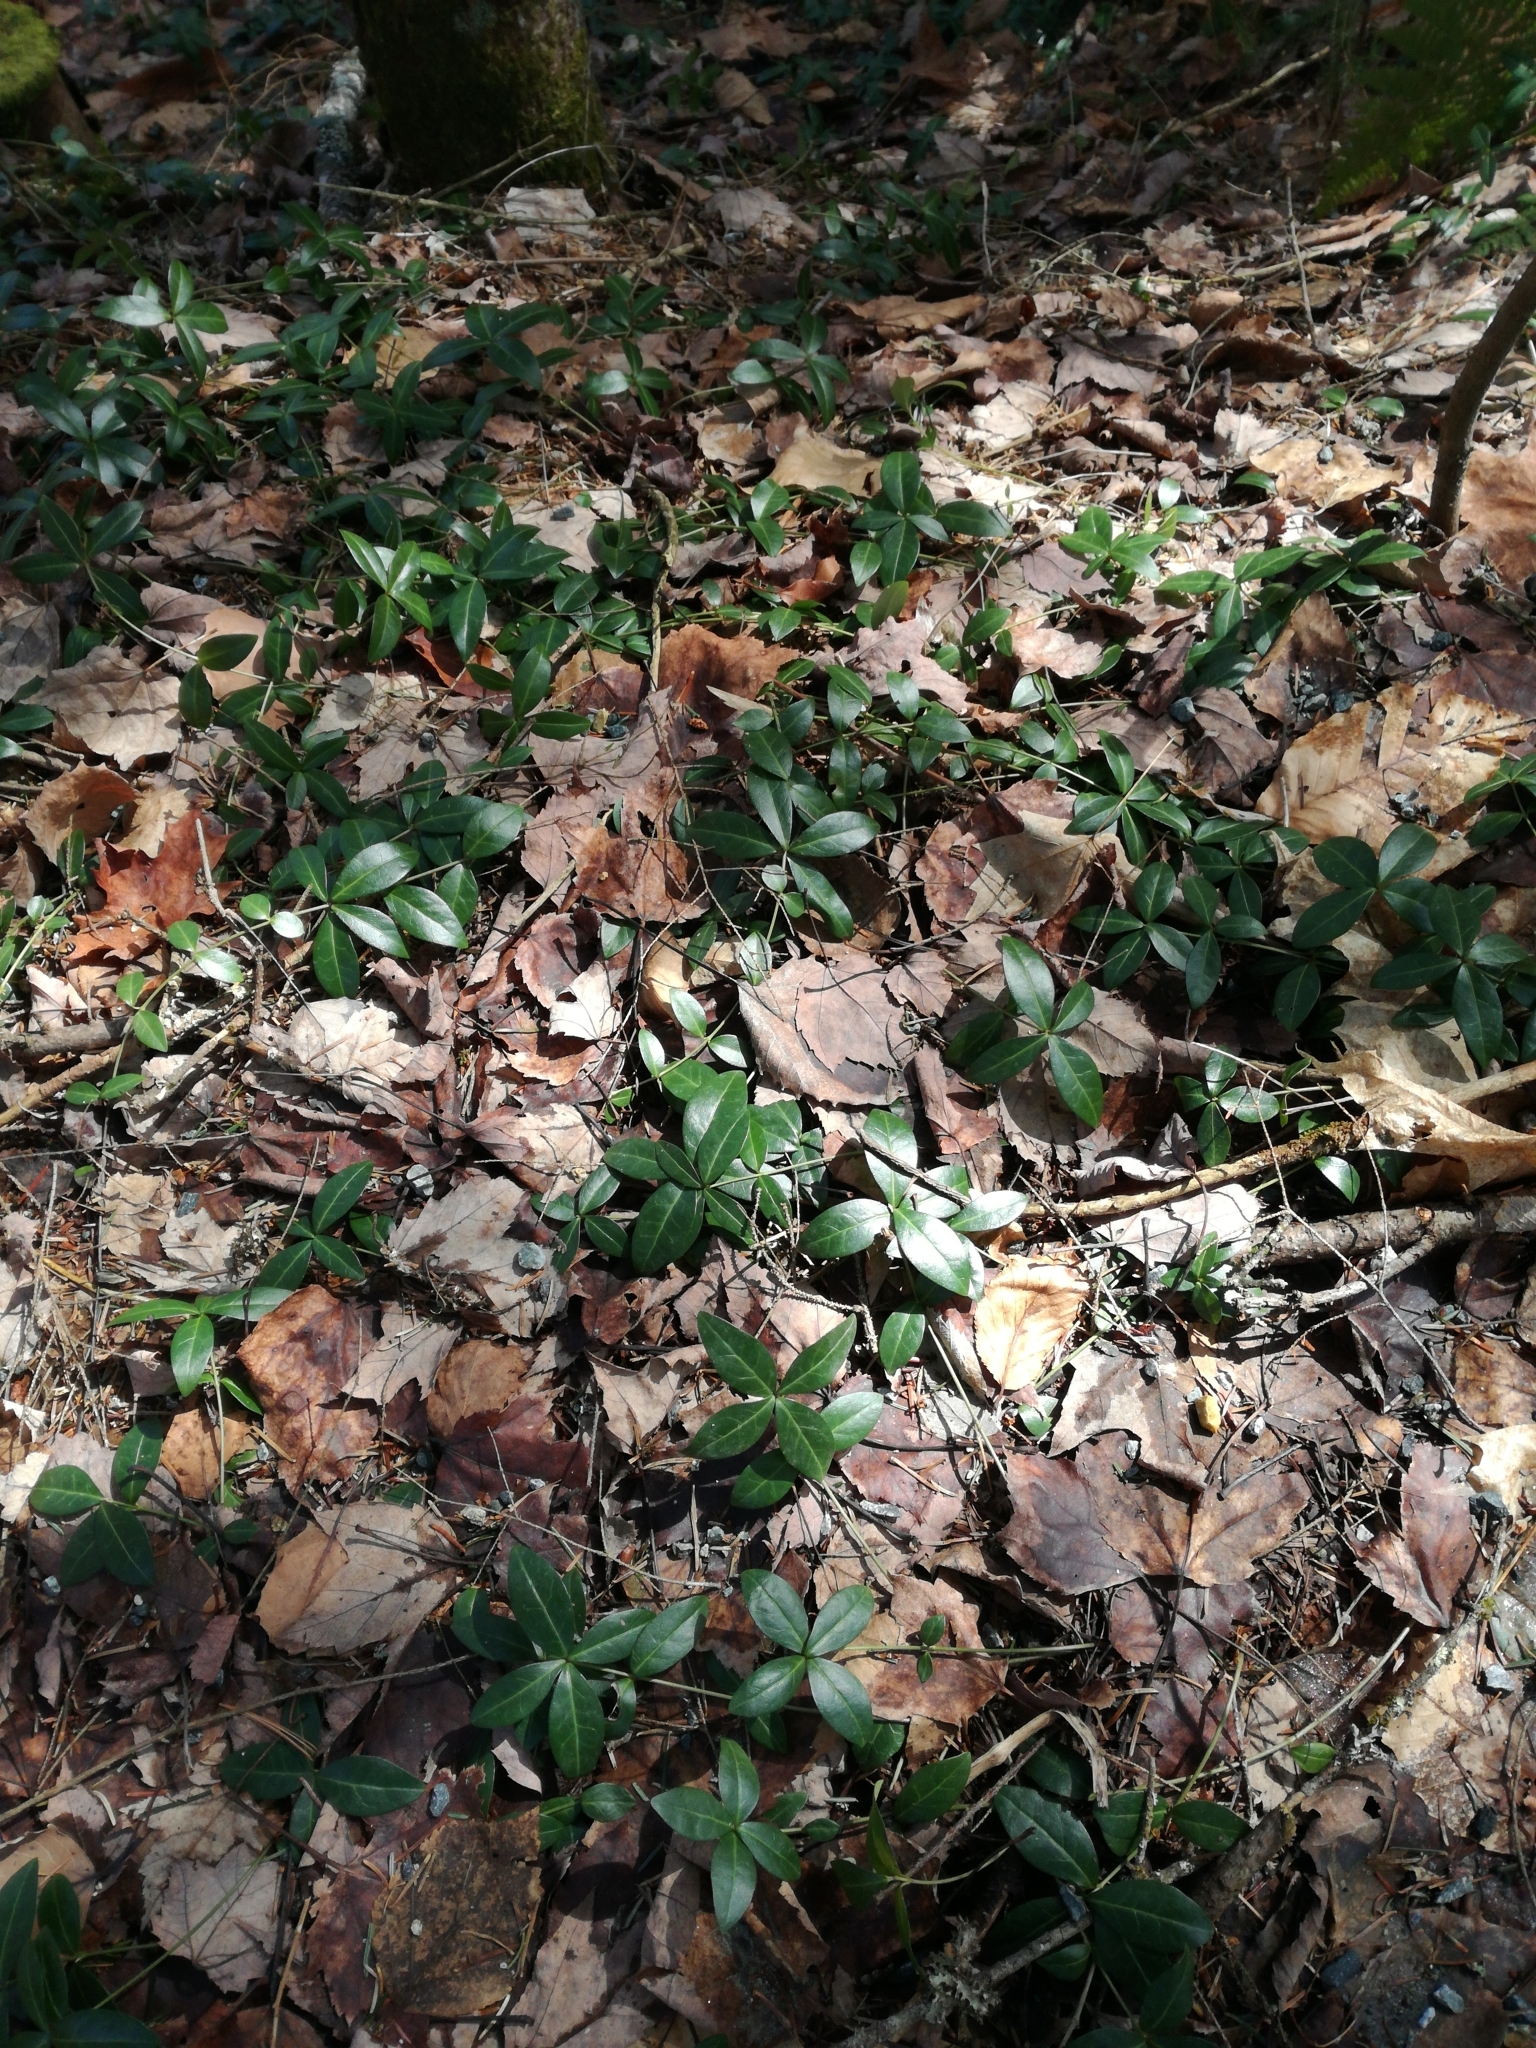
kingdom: Plantae
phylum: Tracheophyta
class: Magnoliopsida
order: Gentianales
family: Apocynaceae
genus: Vinca
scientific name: Vinca minor
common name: Lesser periwinkle
